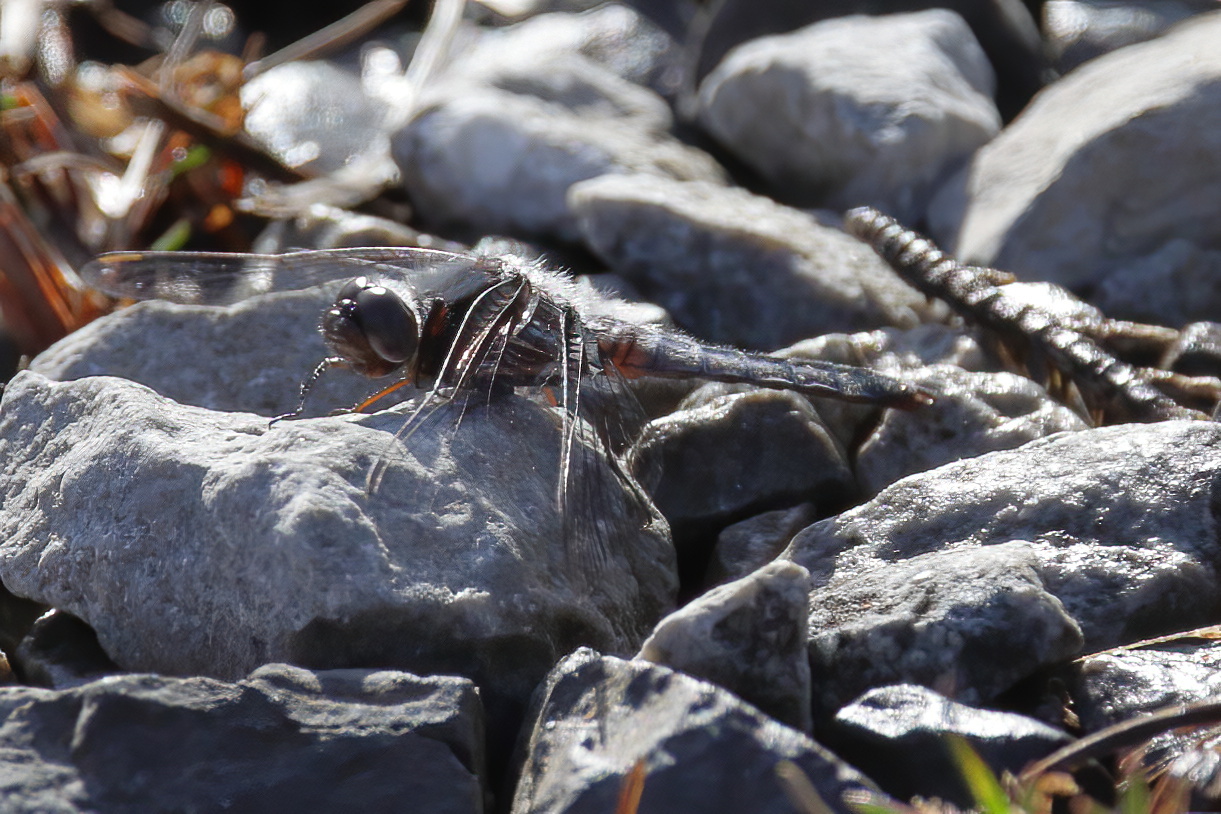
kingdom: Animalia
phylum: Arthropoda
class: Insecta
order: Odonata
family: Libellulidae
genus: Ladona
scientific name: Ladona deplanata
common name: Blue corporal
